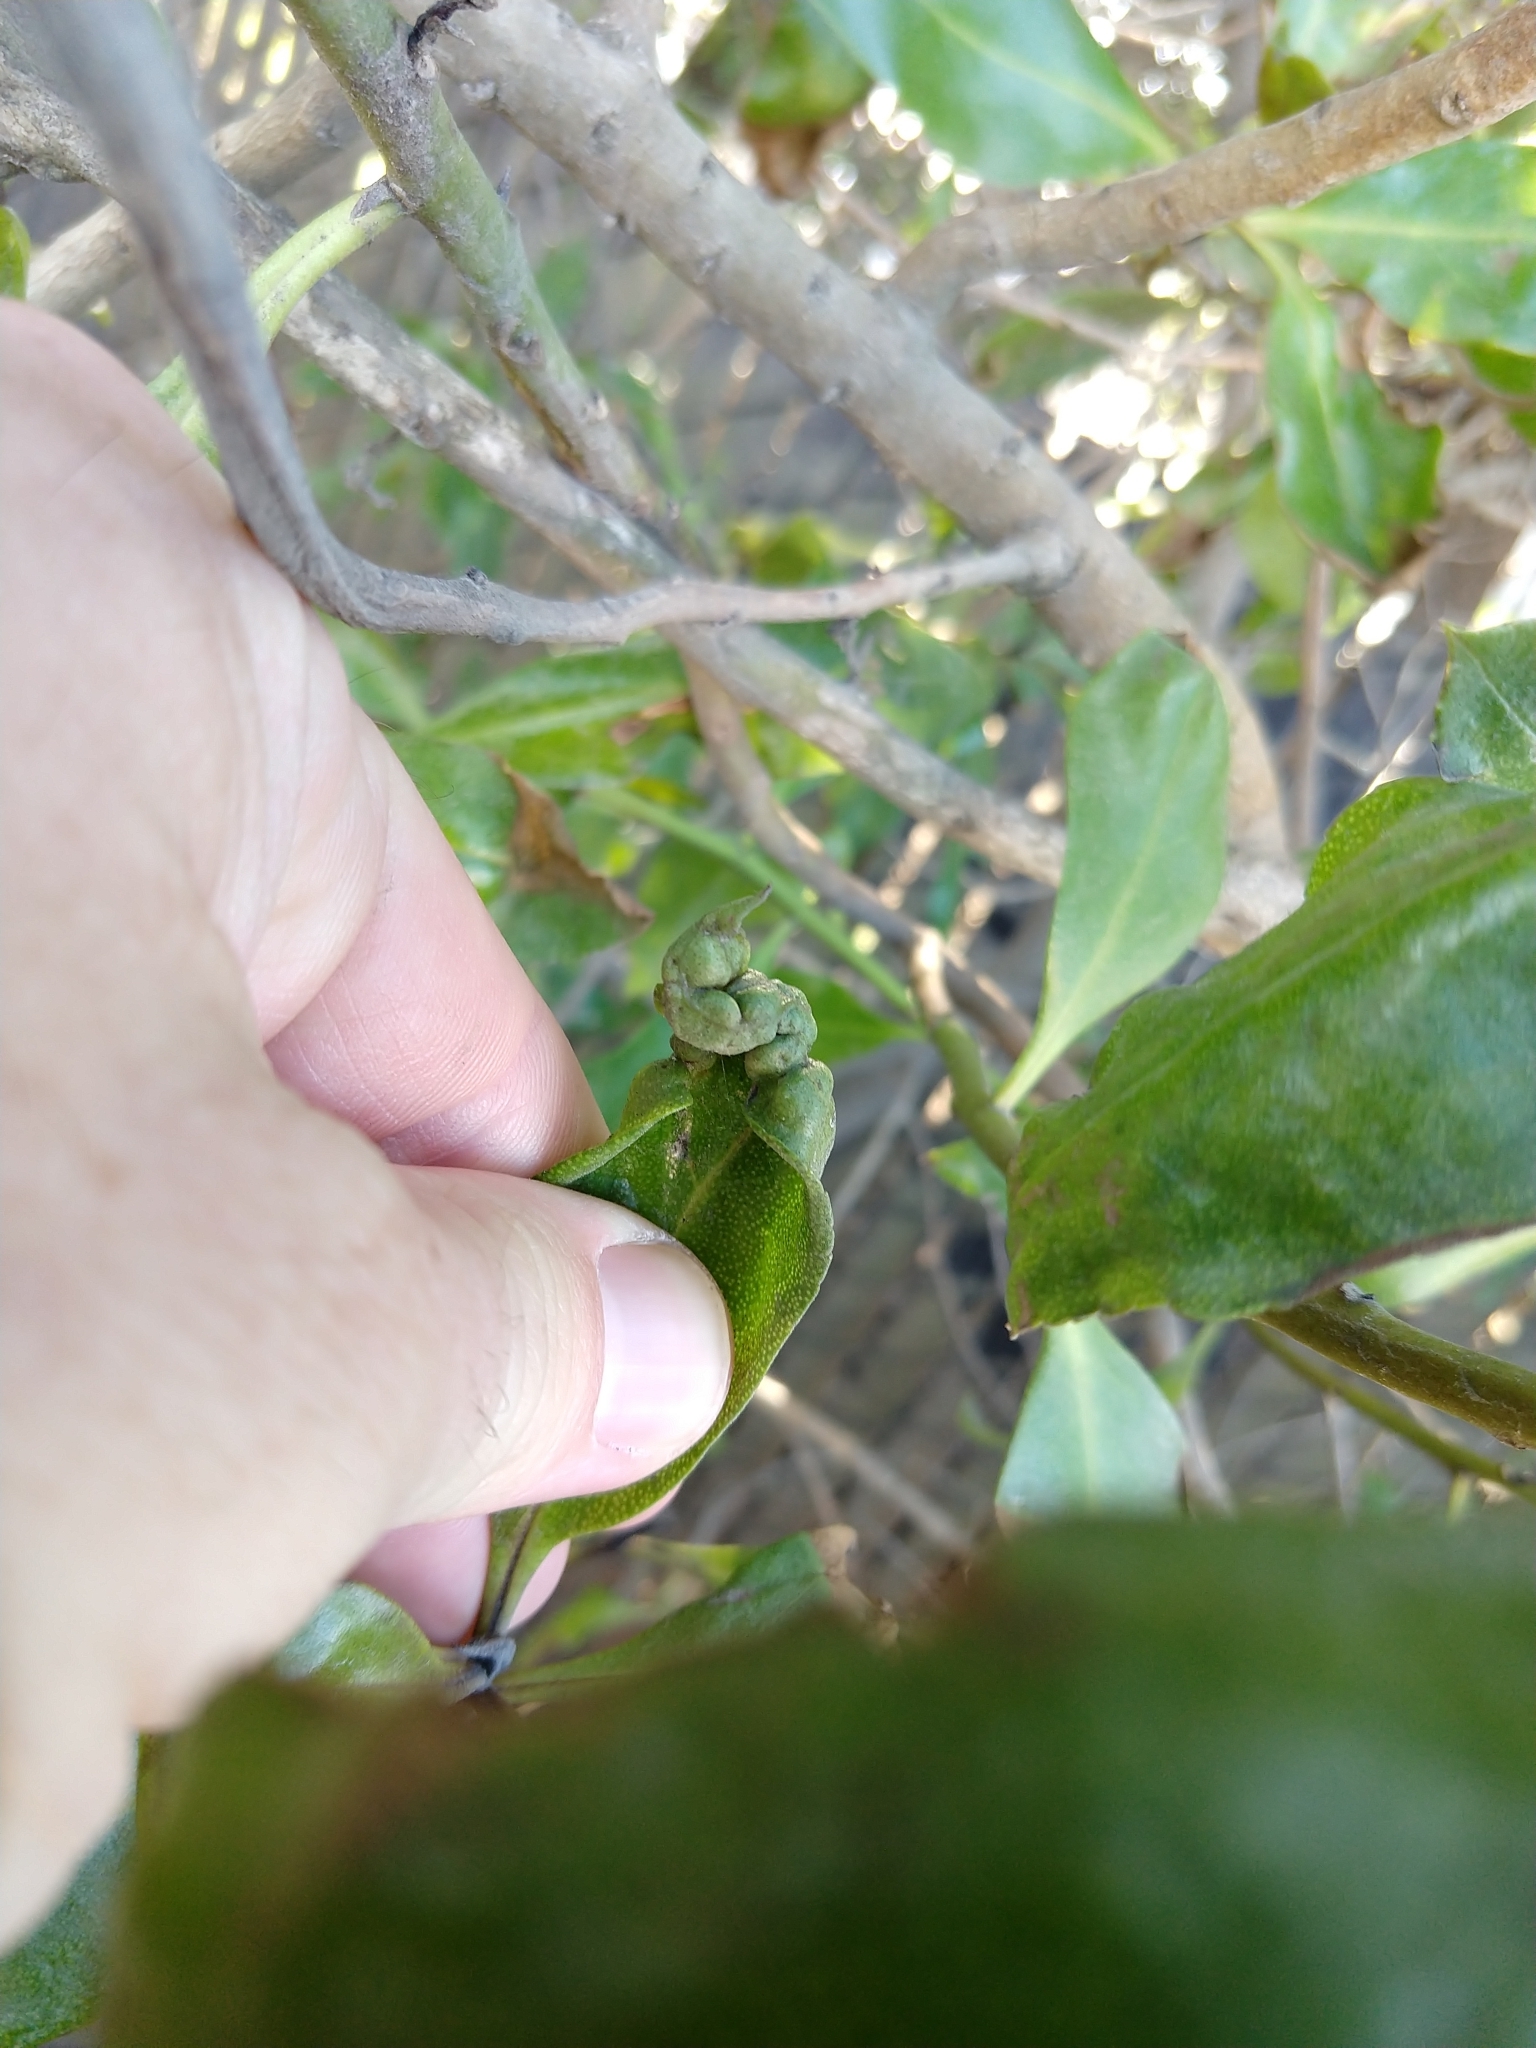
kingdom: Animalia
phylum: Arthropoda
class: Insecta
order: Thysanoptera
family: Phlaeothripidae
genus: Klambothrips
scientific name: Klambothrips myopori
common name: Myoporum thrips
